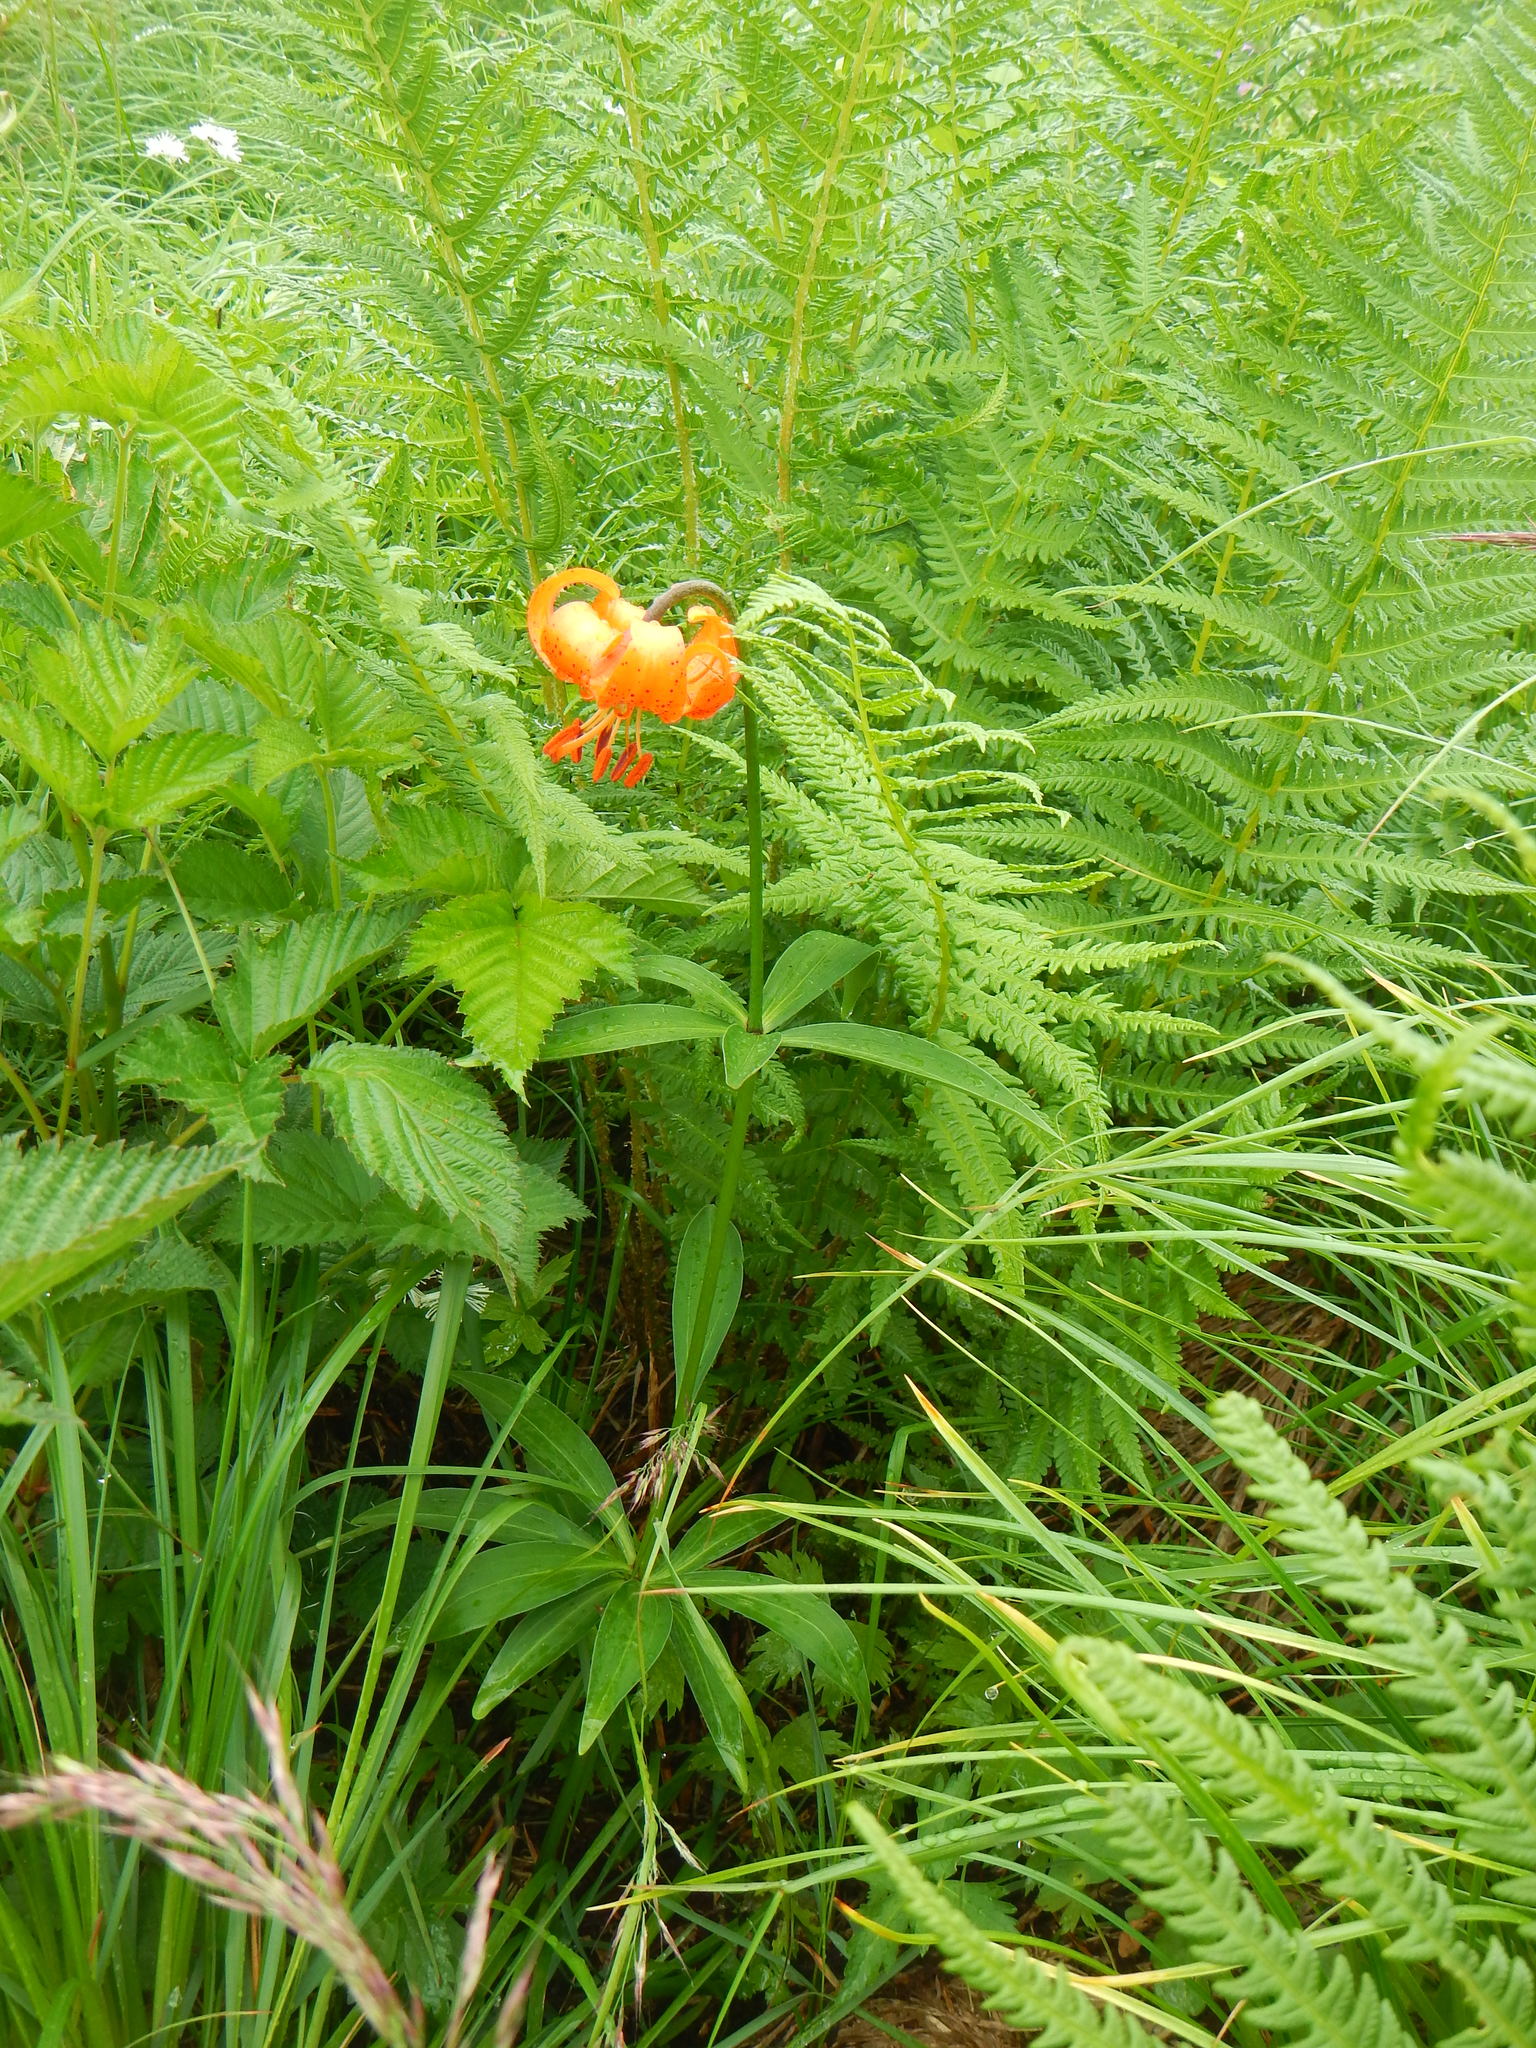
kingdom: Plantae
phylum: Tracheophyta
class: Liliopsida
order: Liliales
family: Liliaceae
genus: Lilium
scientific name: Lilium medeoloides
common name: Wheel lily
